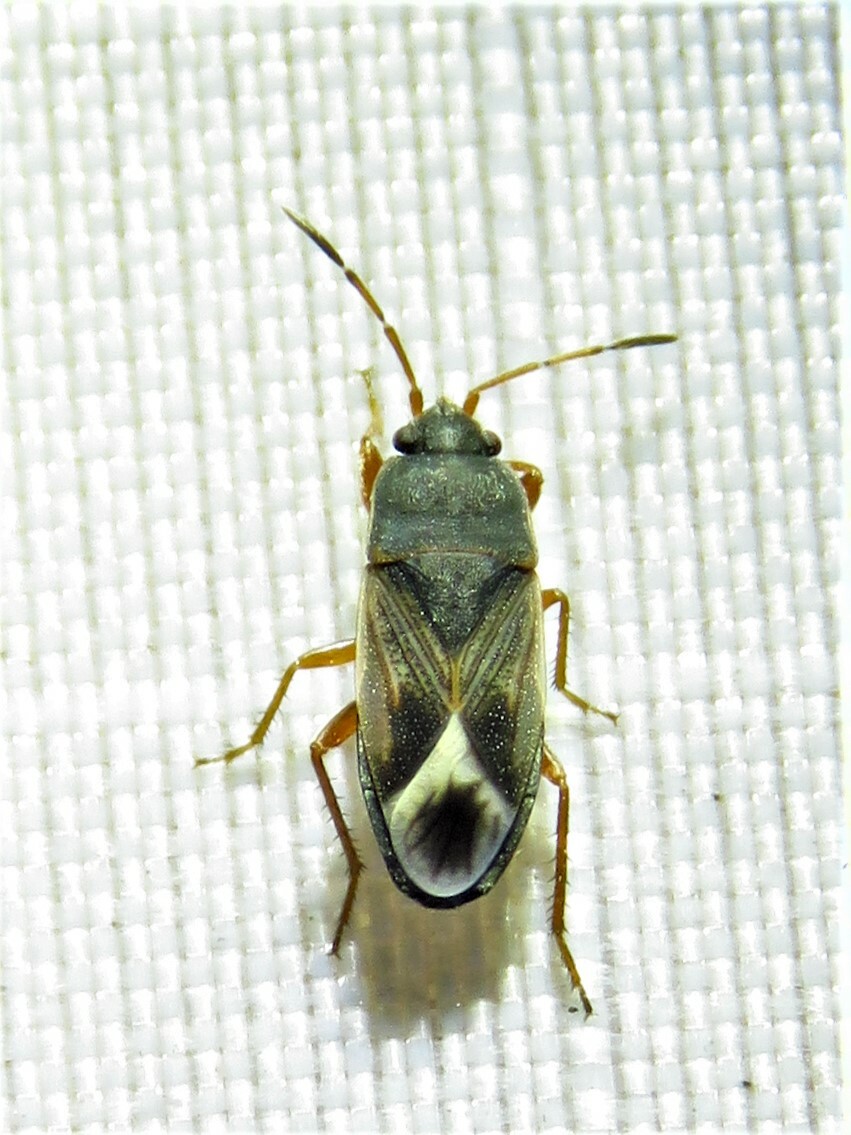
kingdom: Animalia
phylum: Arthropoda
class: Insecta
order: Hemiptera
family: Rhyparochromidae
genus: Malezonotus
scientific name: Malezonotus rufipes
